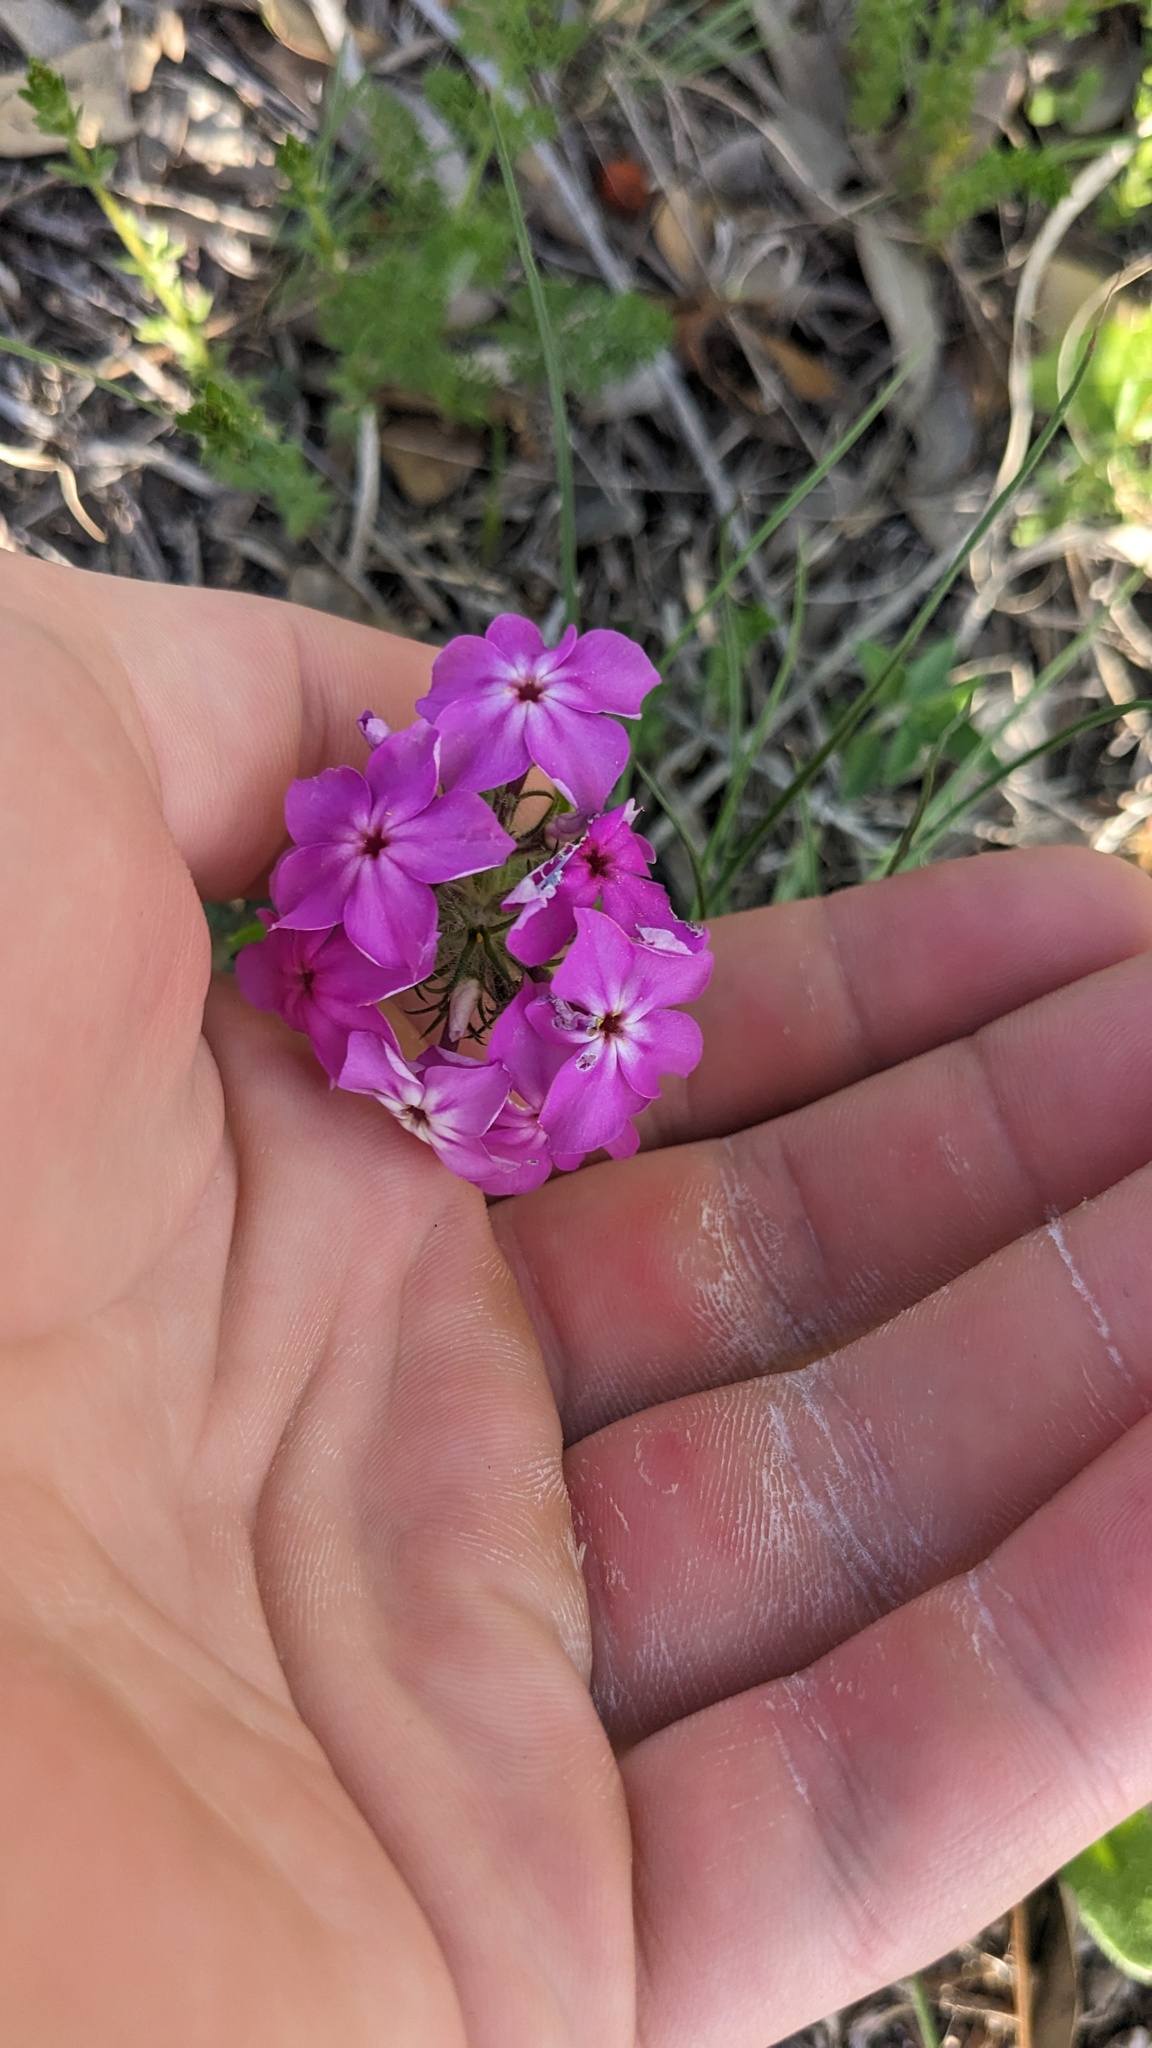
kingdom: Plantae
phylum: Tracheophyta
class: Magnoliopsida
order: Ericales
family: Polemoniaceae
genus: Phlox
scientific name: Phlox drummondii
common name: Drummond's phlox
